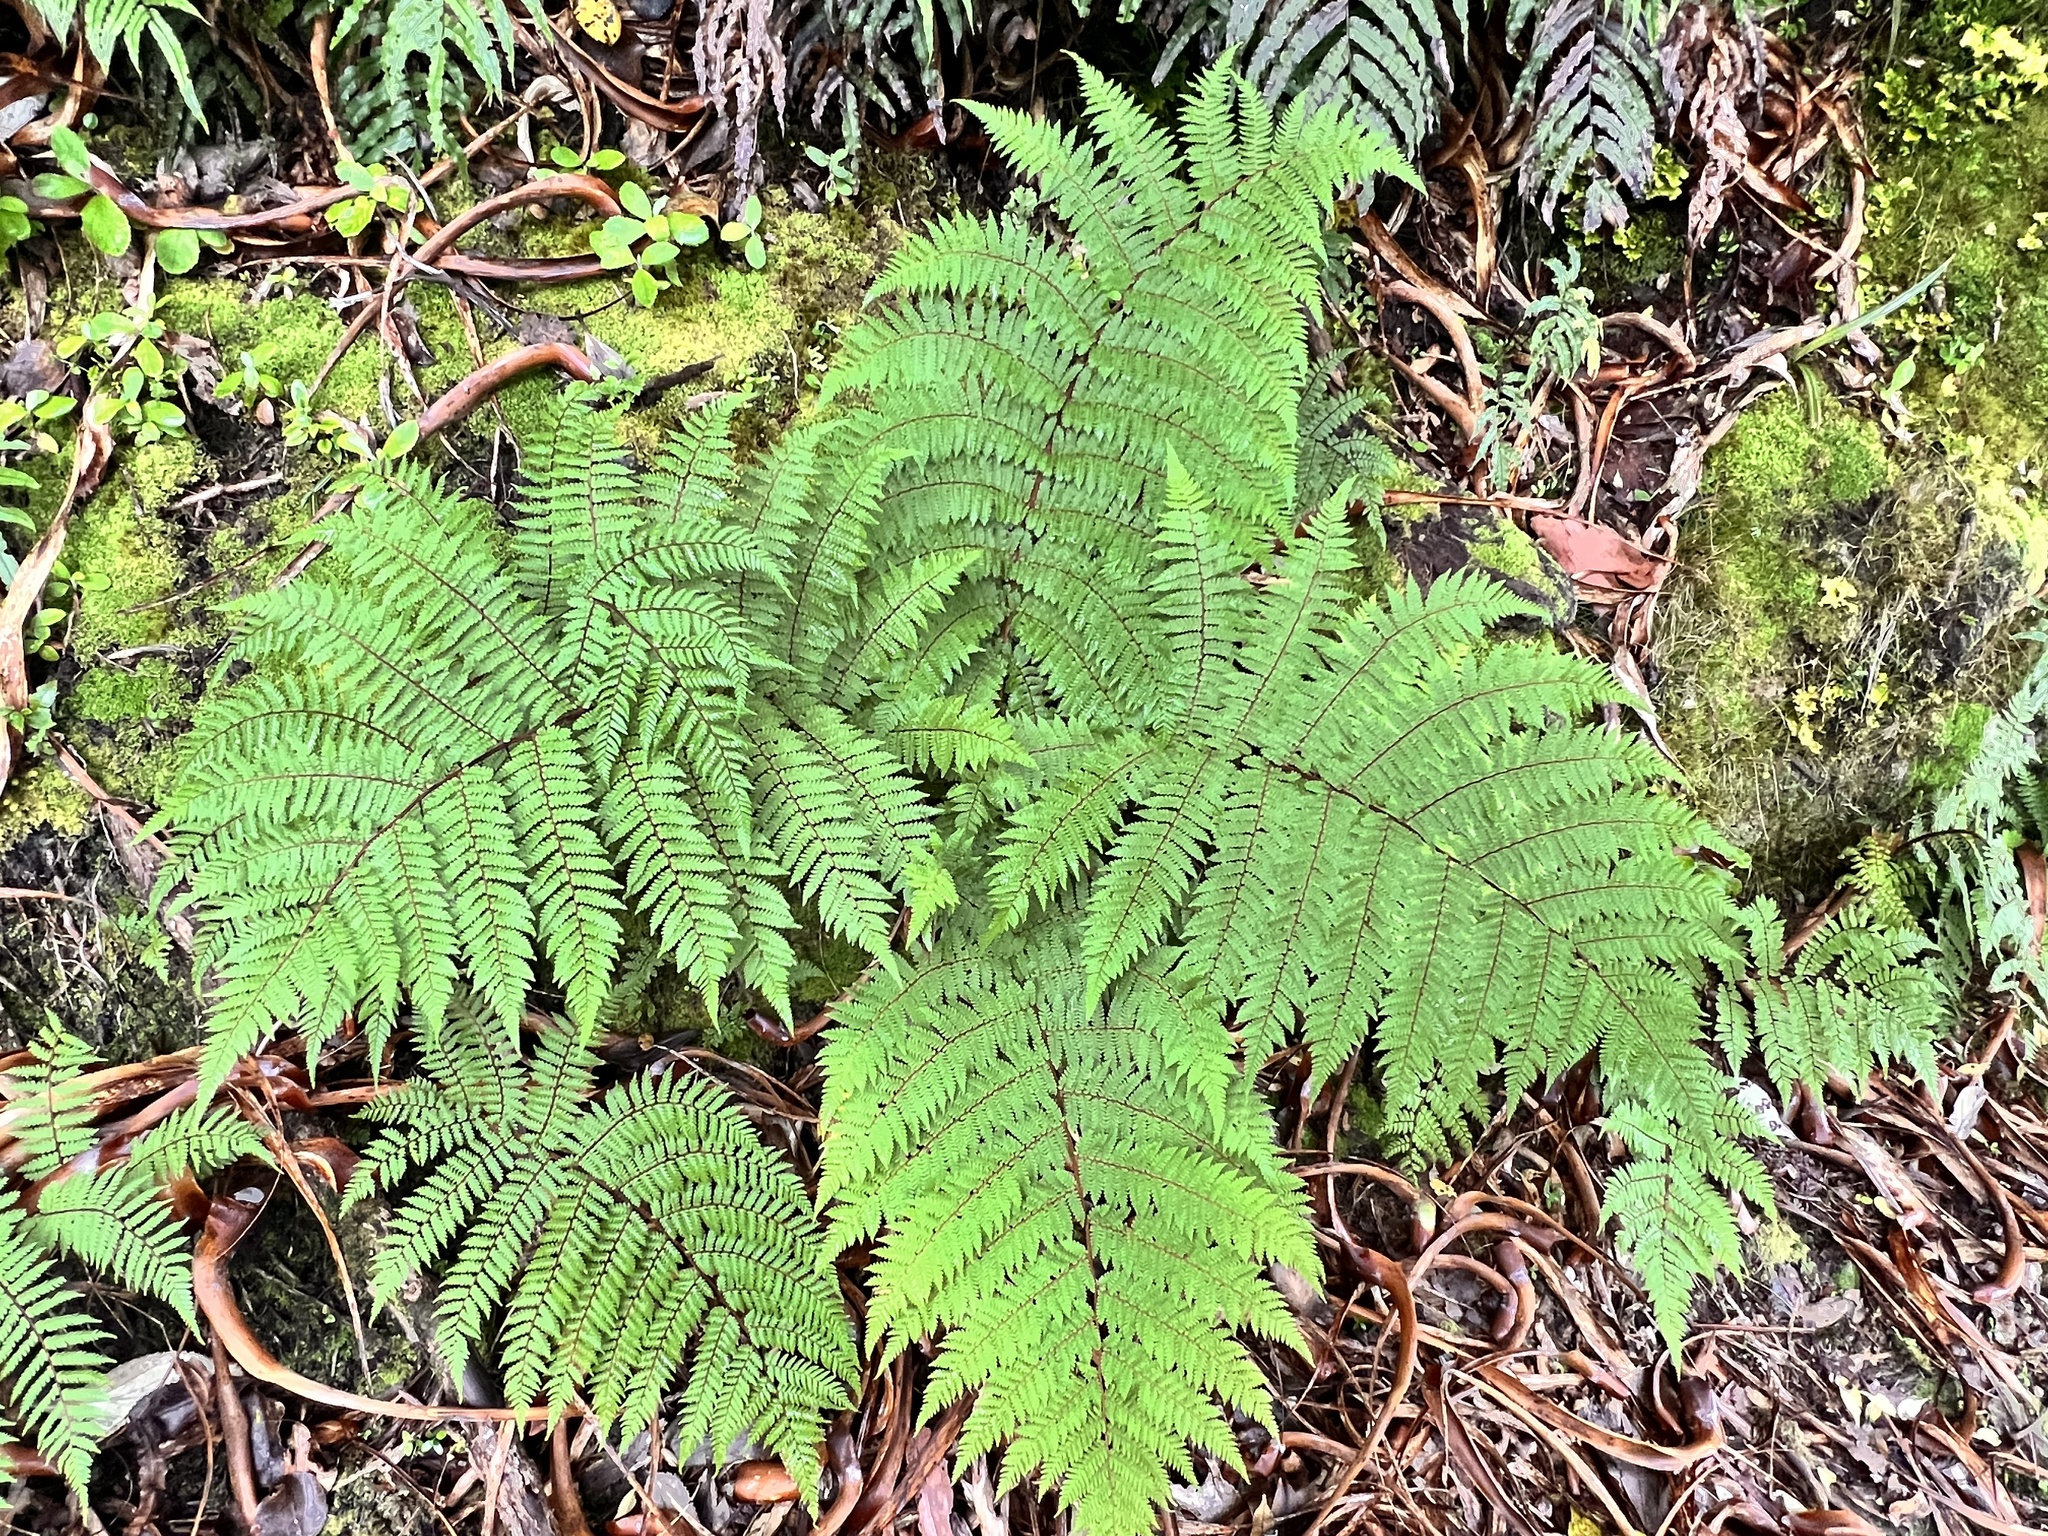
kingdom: Plantae
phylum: Tracheophyta
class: Polypodiopsida
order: Cyatheales
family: Cyatheaceae
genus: Alsophila
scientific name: Alsophila colensoi
